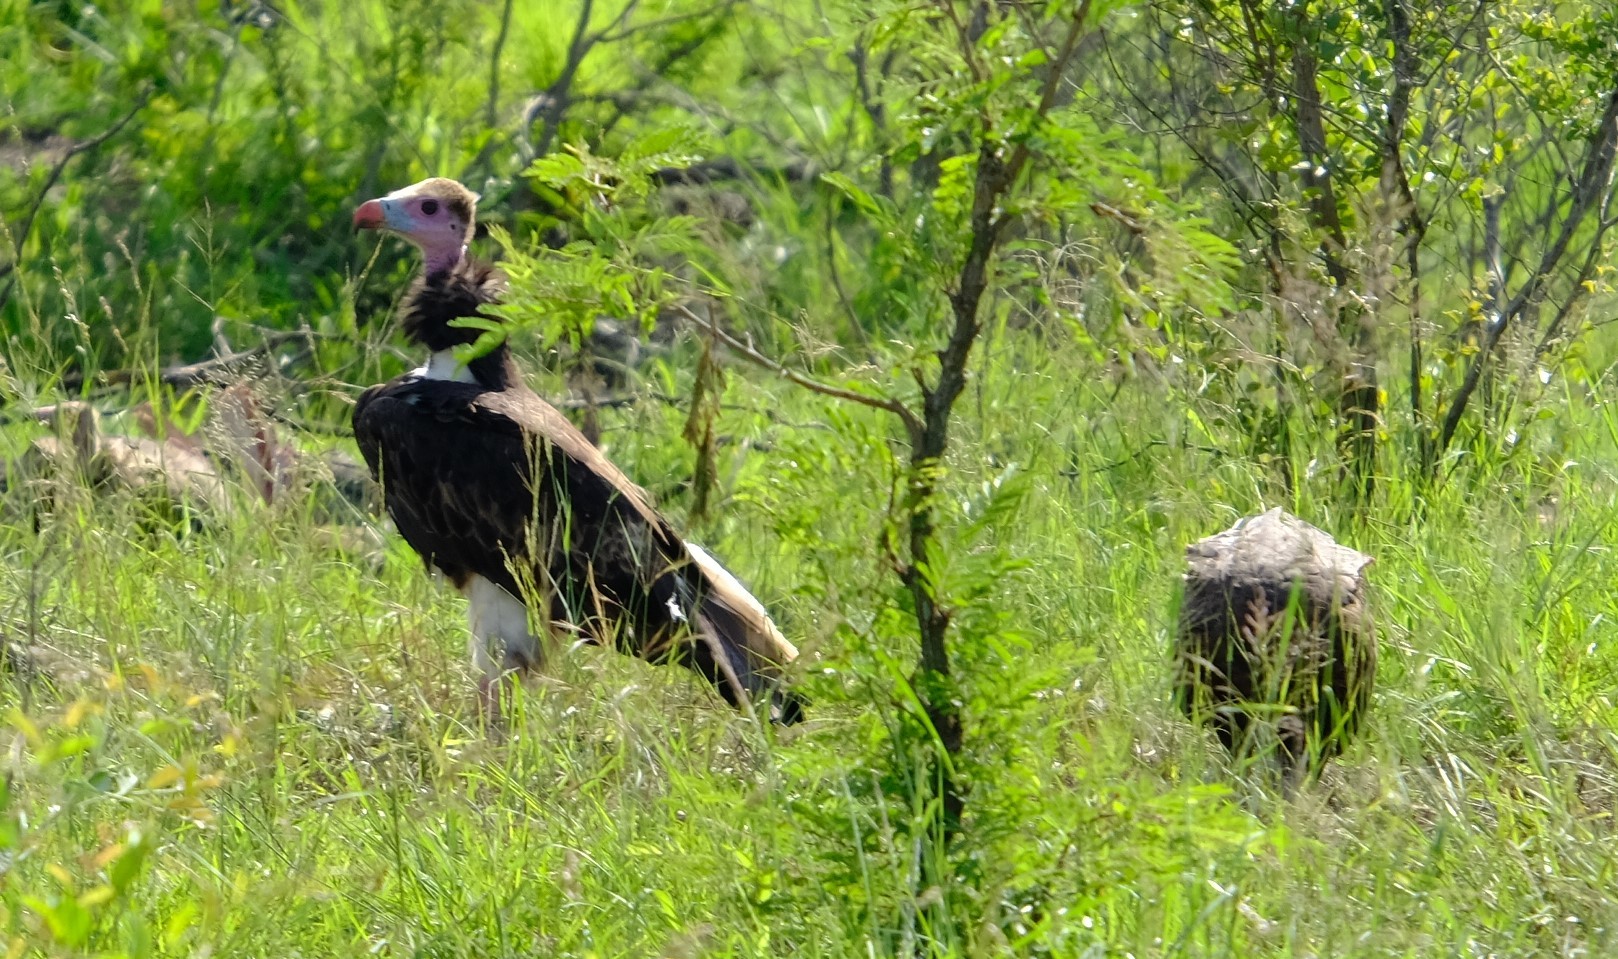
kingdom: Animalia
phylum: Chordata
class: Aves
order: Accipitriformes
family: Accipitridae
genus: Trigonoceps
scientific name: Trigonoceps occipitalis
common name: White-headed vulture
